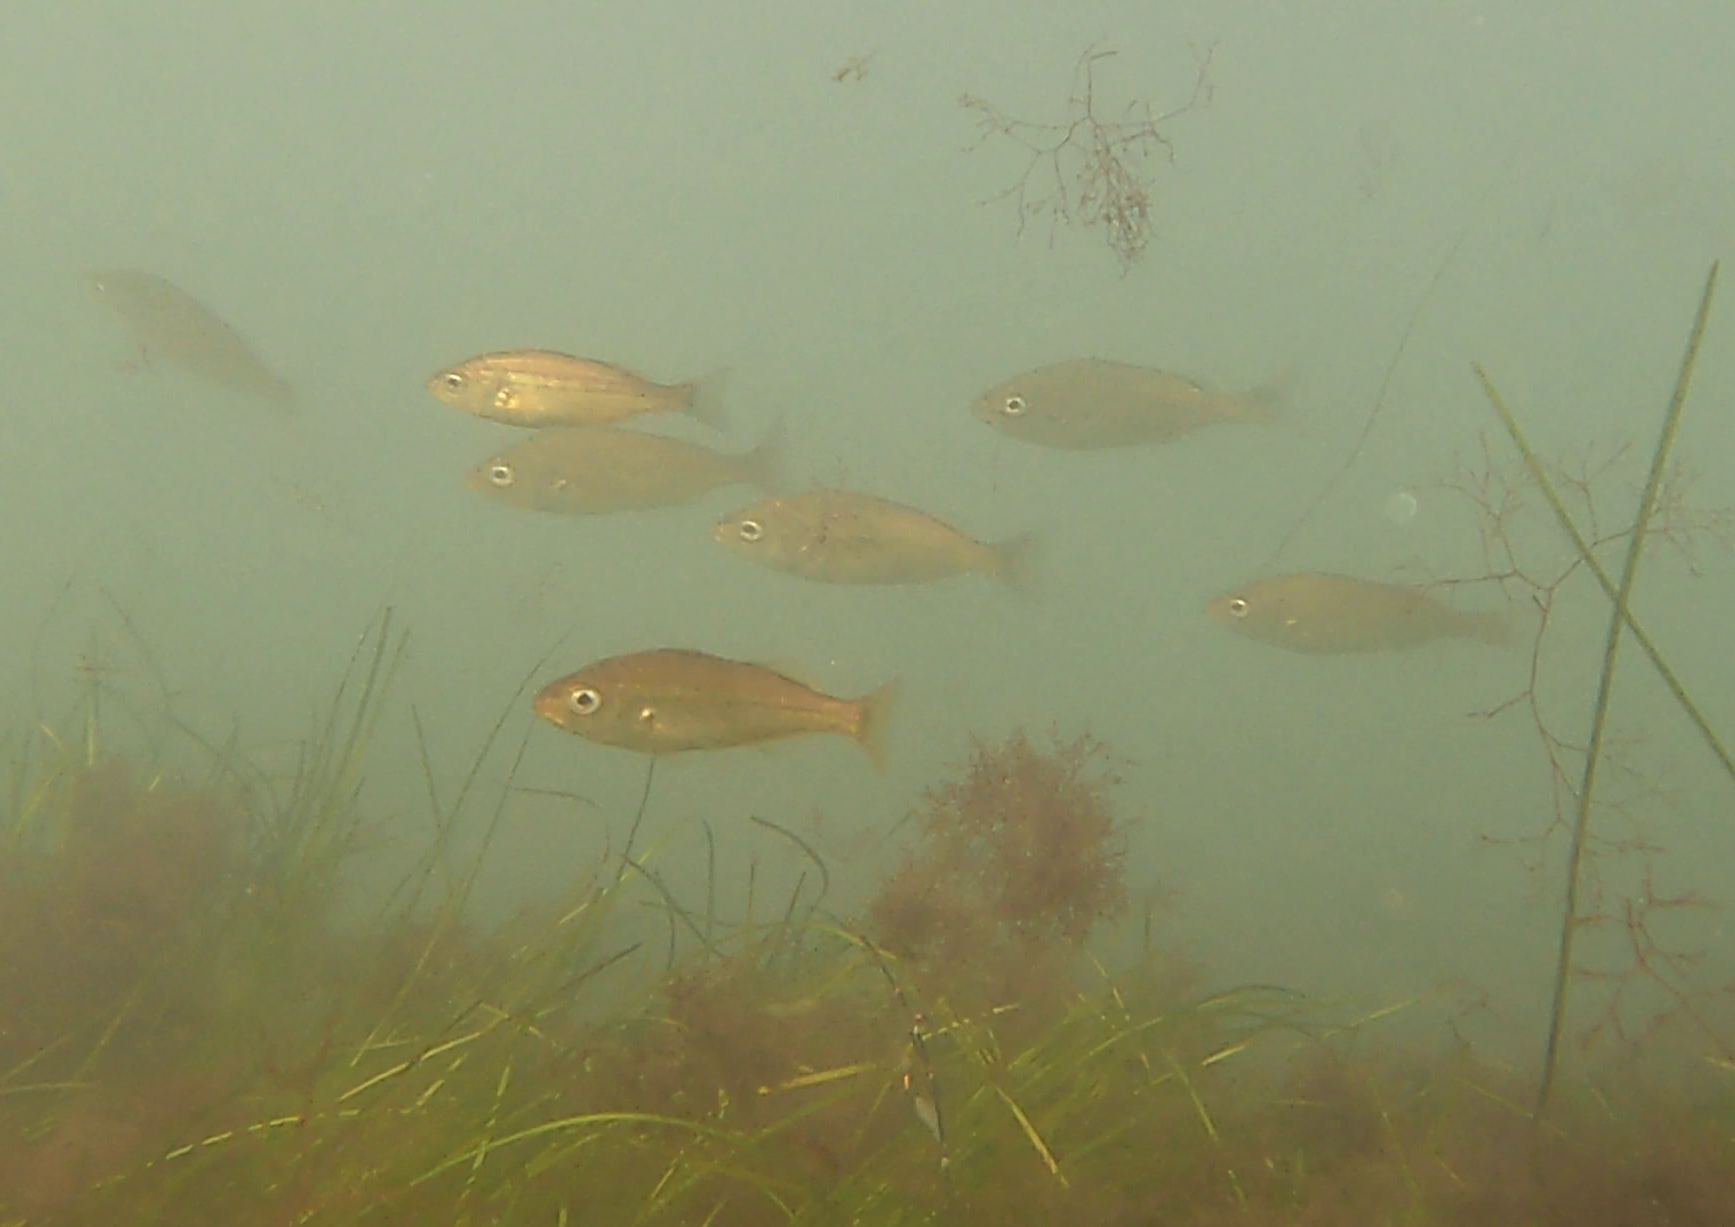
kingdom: Animalia
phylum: Chordata
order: Perciformes
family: Haemulidae
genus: Isacia
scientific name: Isacia conceptionis
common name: Cabinza grunt
